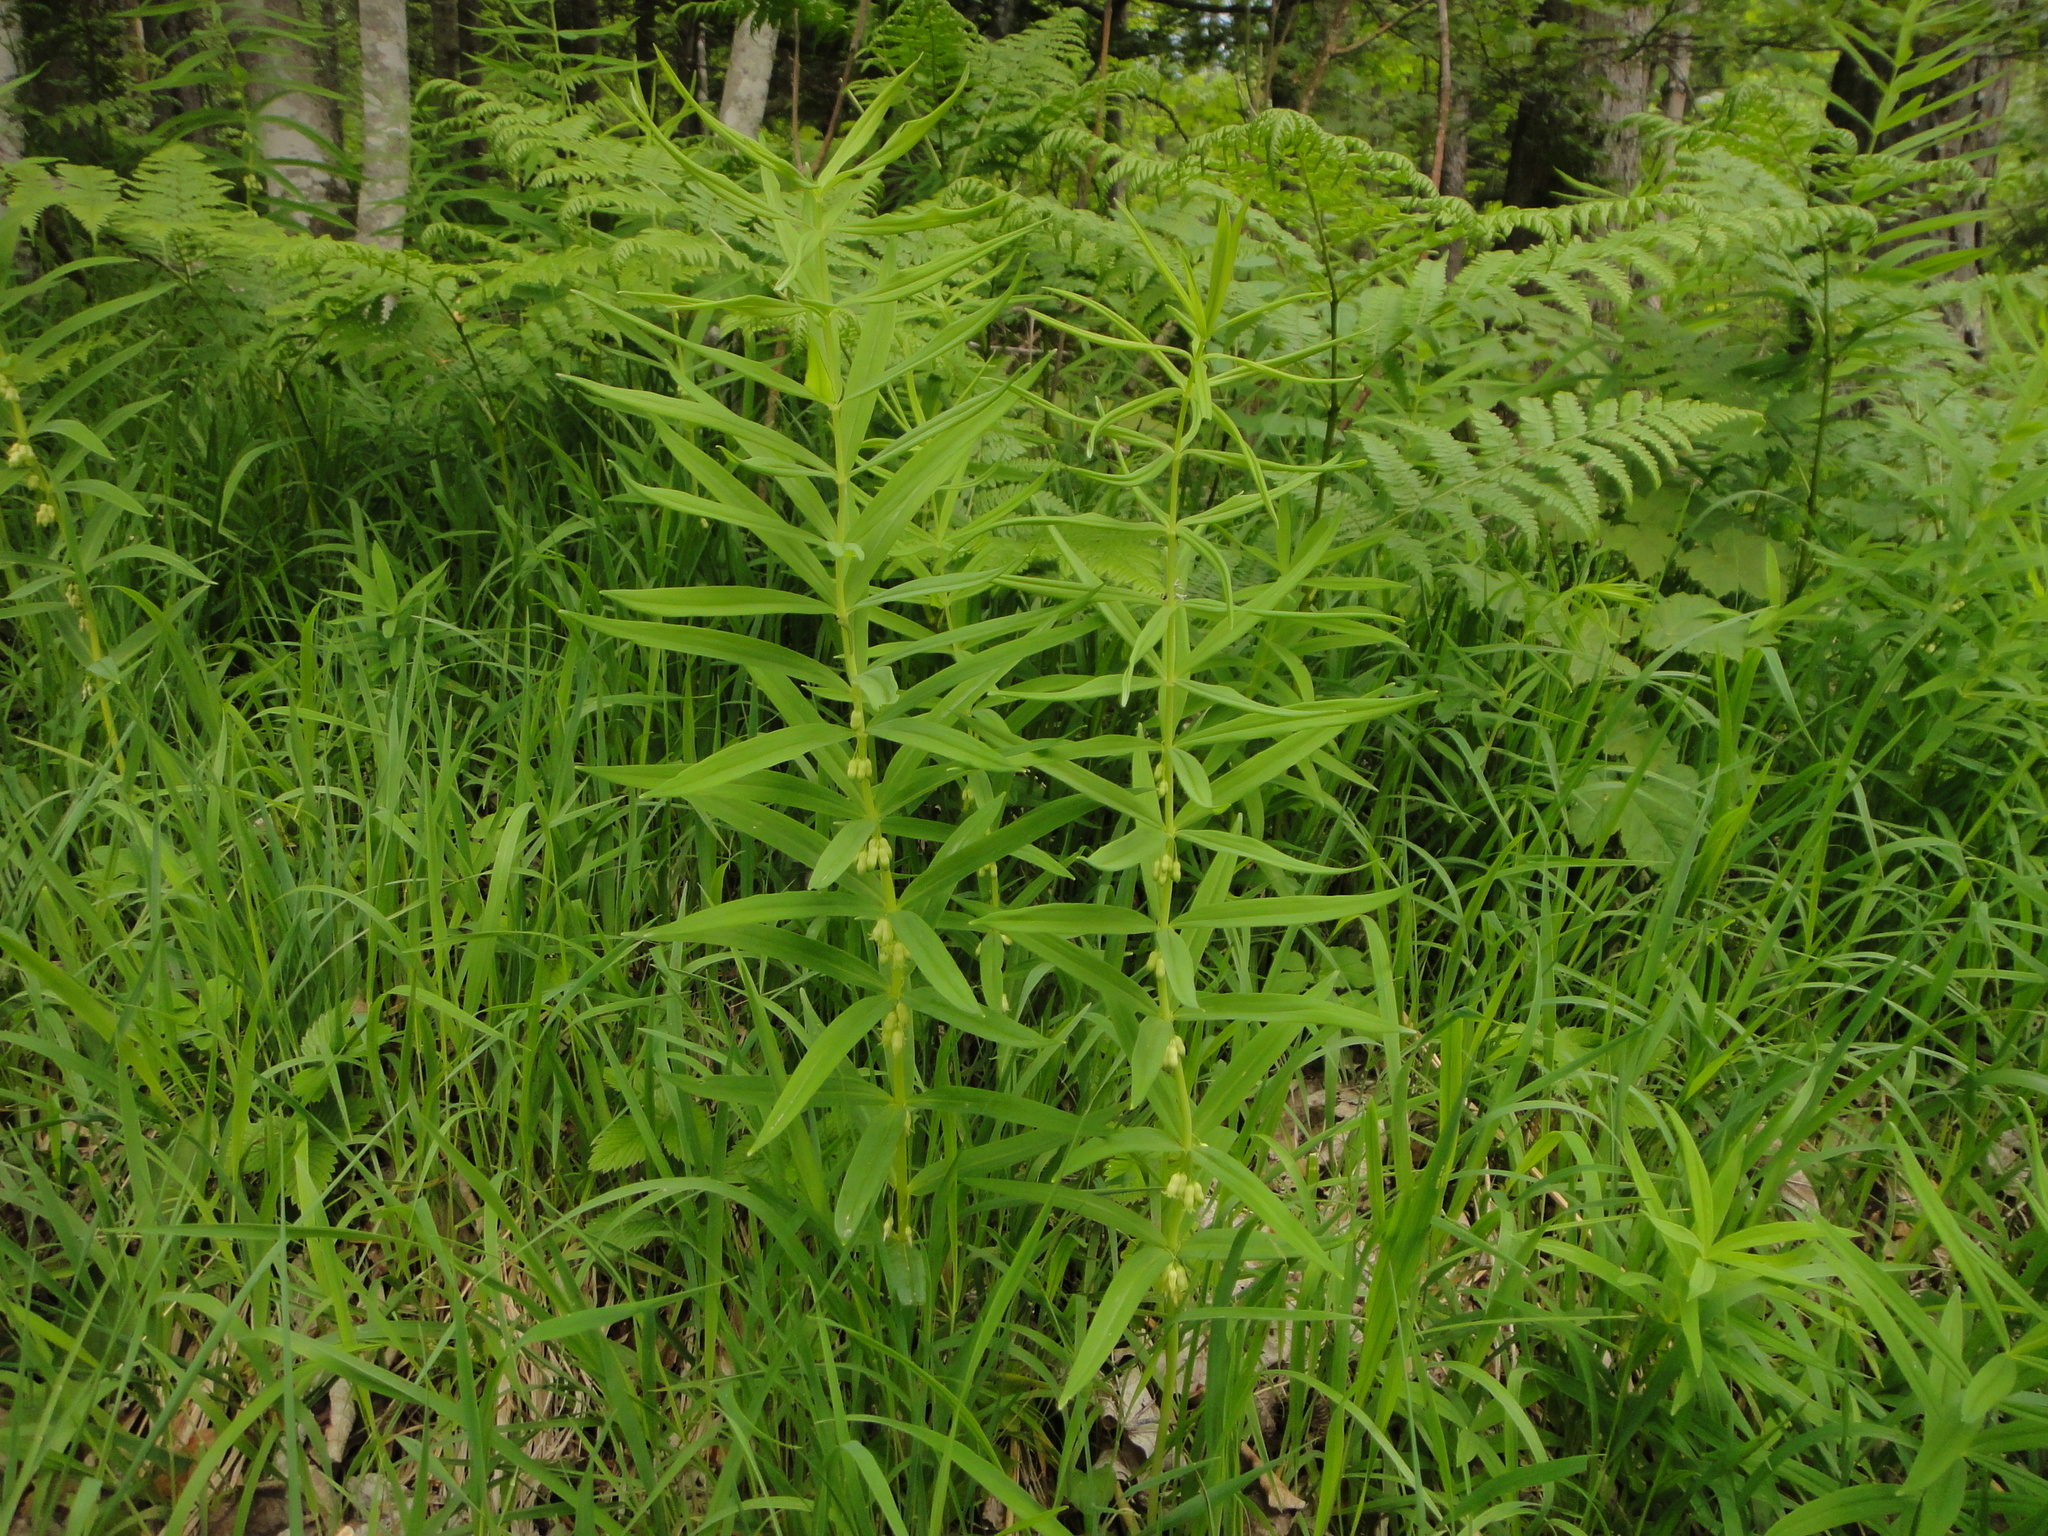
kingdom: Plantae
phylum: Tracheophyta
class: Liliopsida
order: Asparagales
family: Asparagaceae
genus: Polygonatum
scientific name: Polygonatum verticillatum
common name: Whorled solomon's-seal
